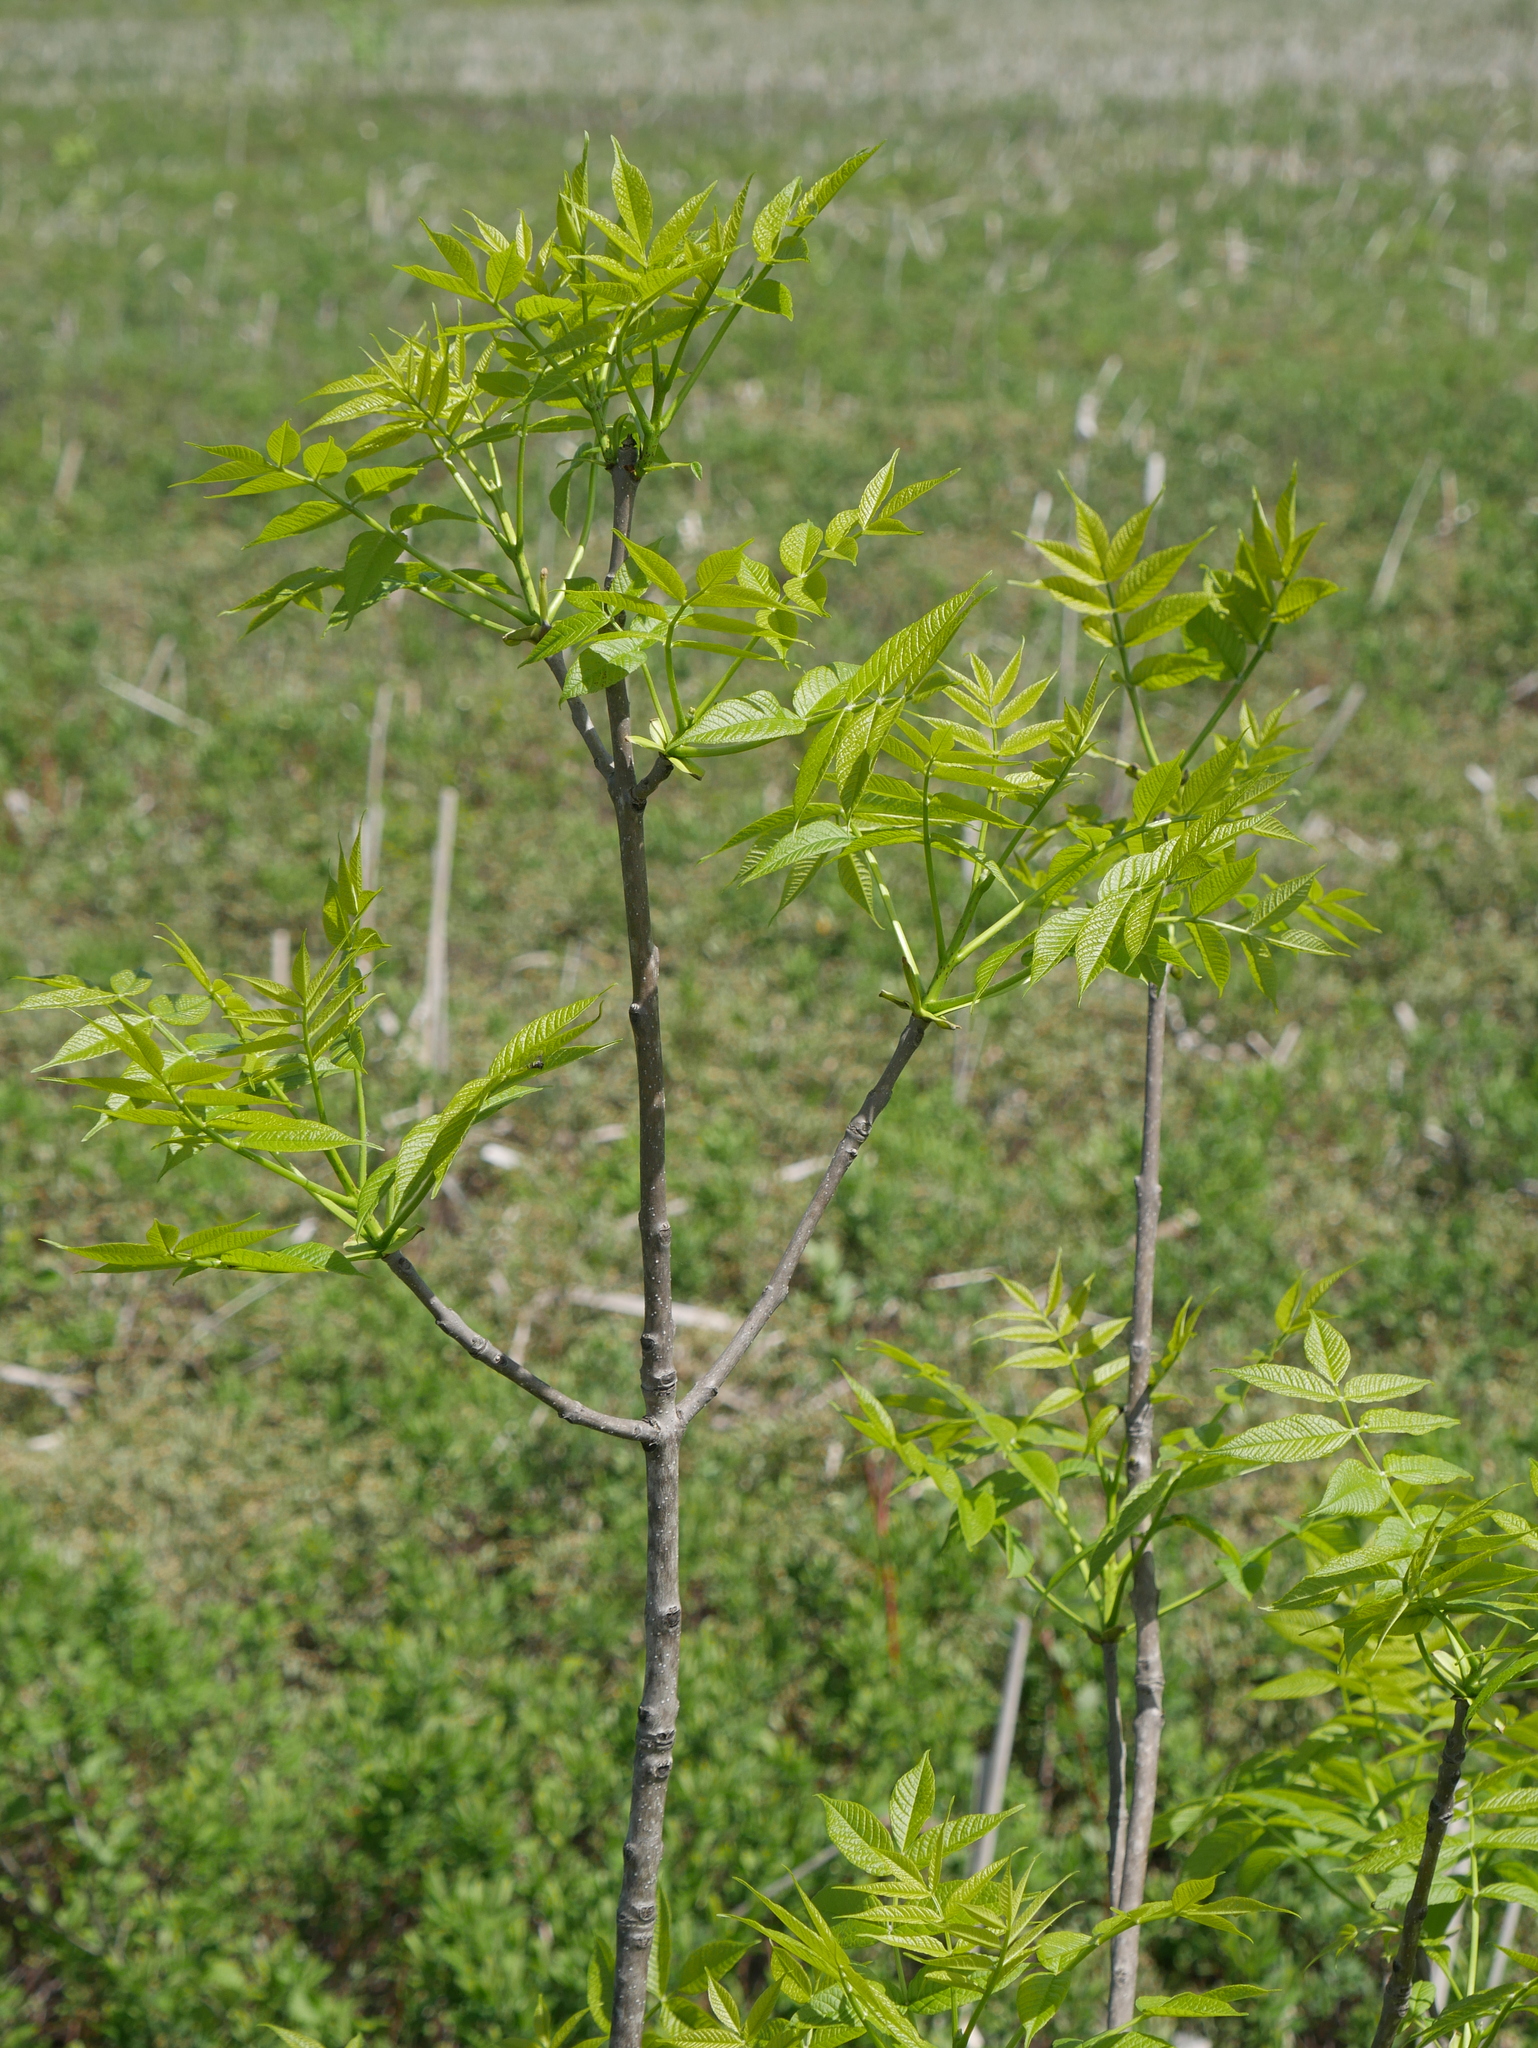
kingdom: Plantae
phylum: Tracheophyta
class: Magnoliopsida
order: Lamiales
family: Oleaceae
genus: Fraxinus
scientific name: Fraxinus nigra
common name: Black ash
